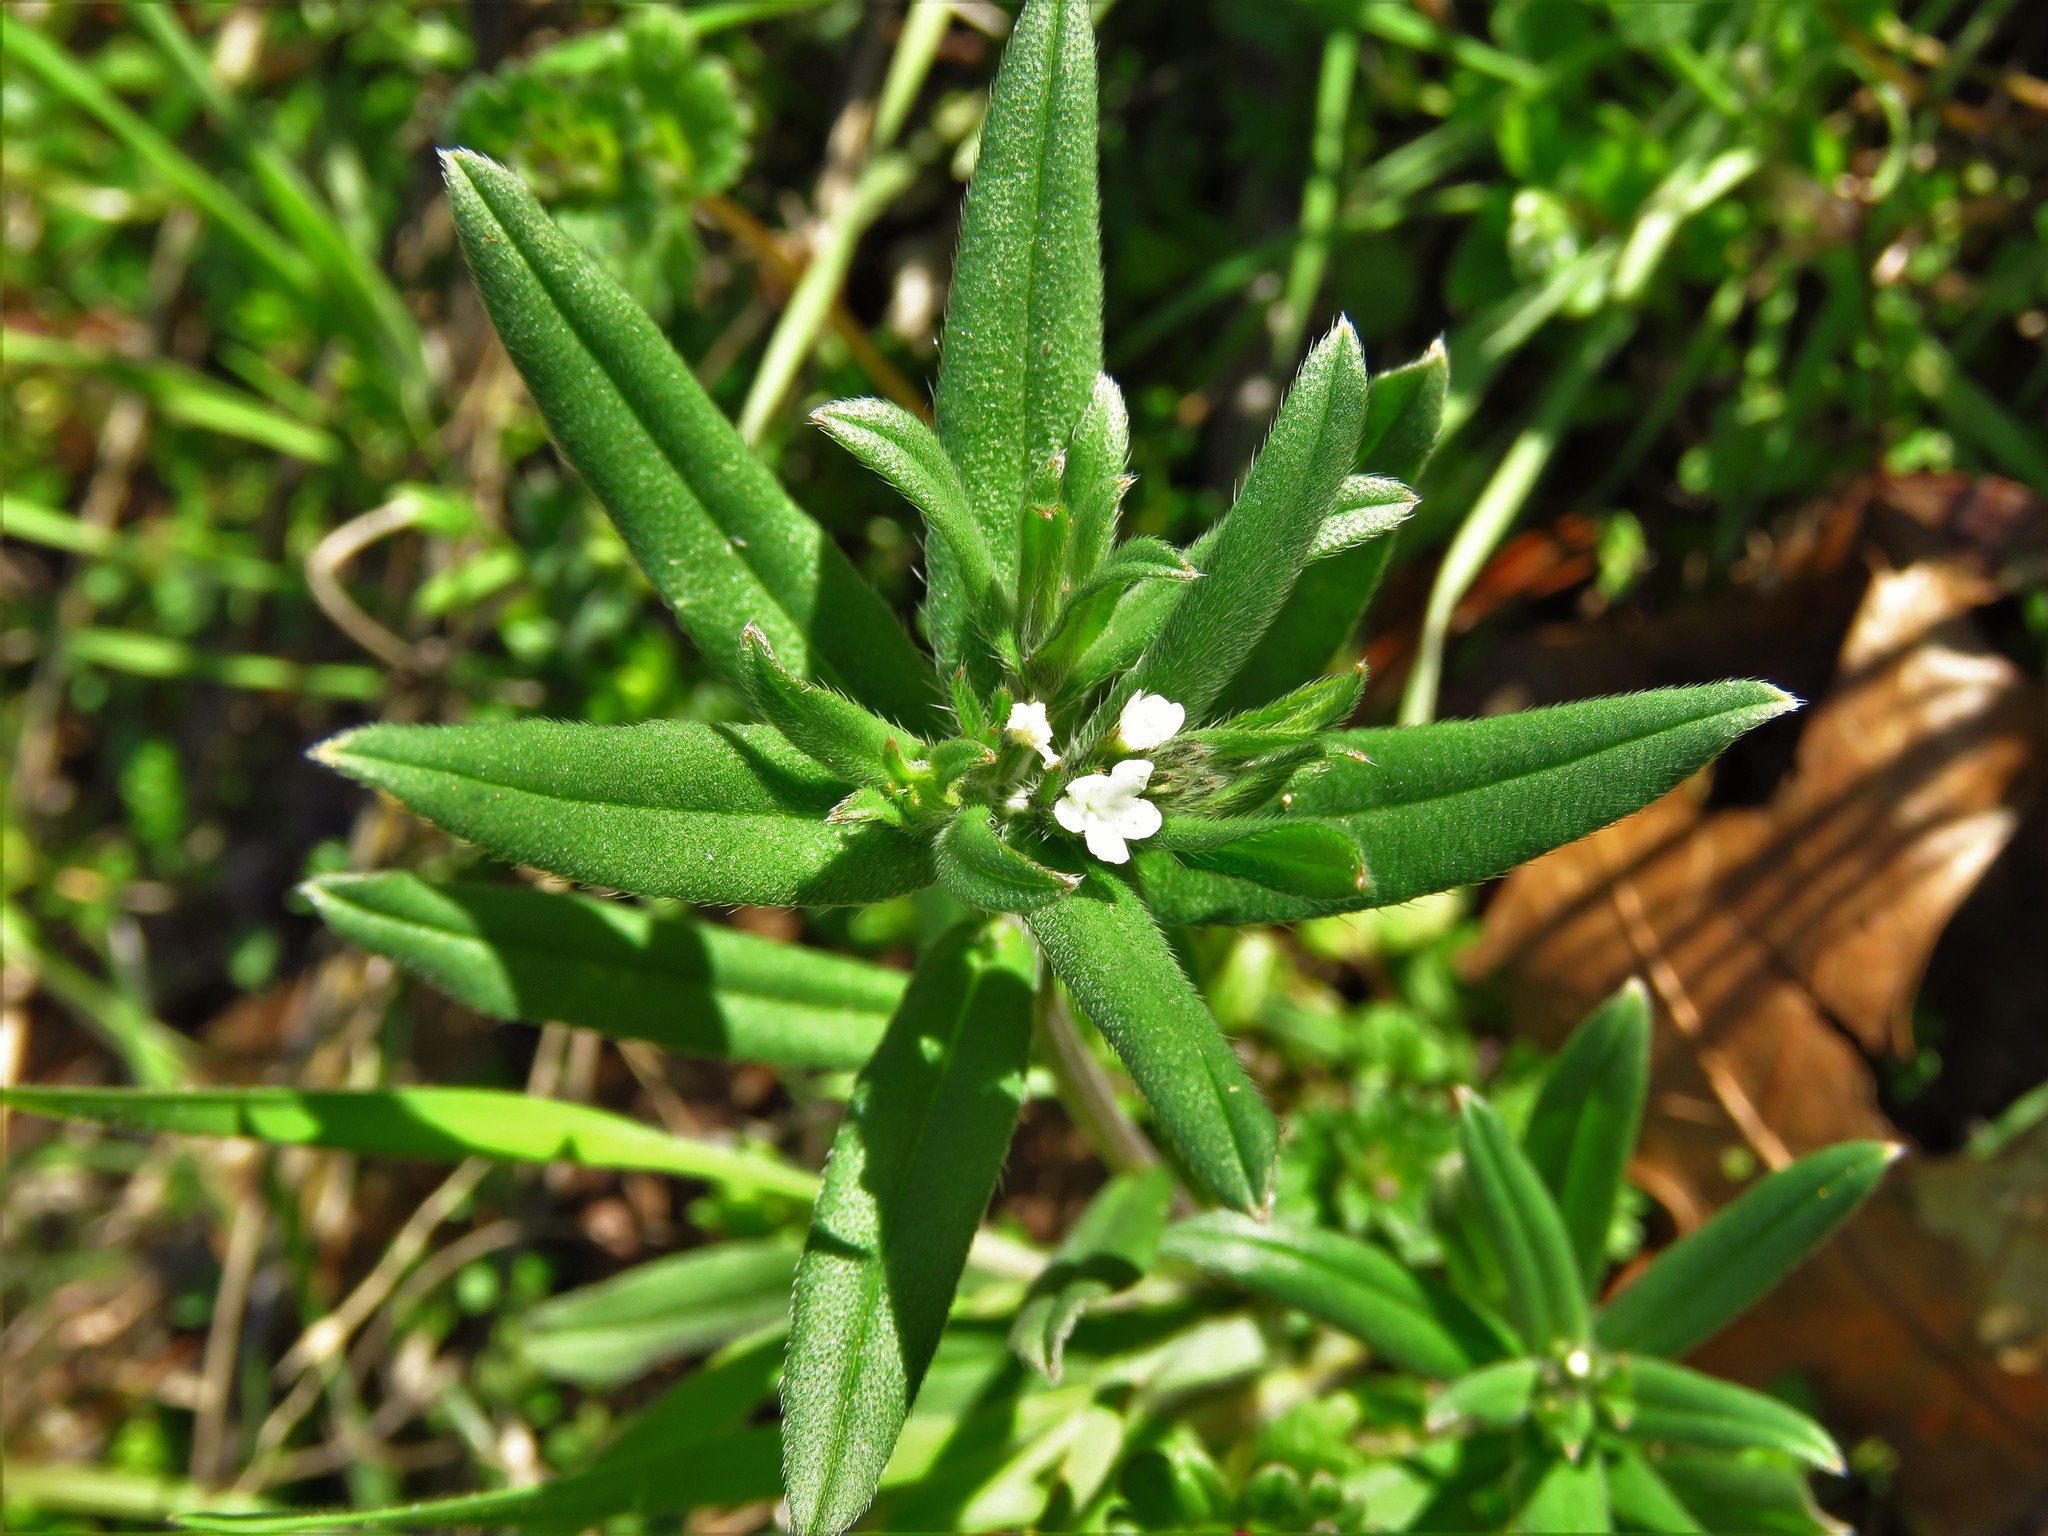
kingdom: Plantae
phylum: Tracheophyta
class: Magnoliopsida
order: Boraginales
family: Boraginaceae
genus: Buglossoides
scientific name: Buglossoides arvensis
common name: Corn gromwell
